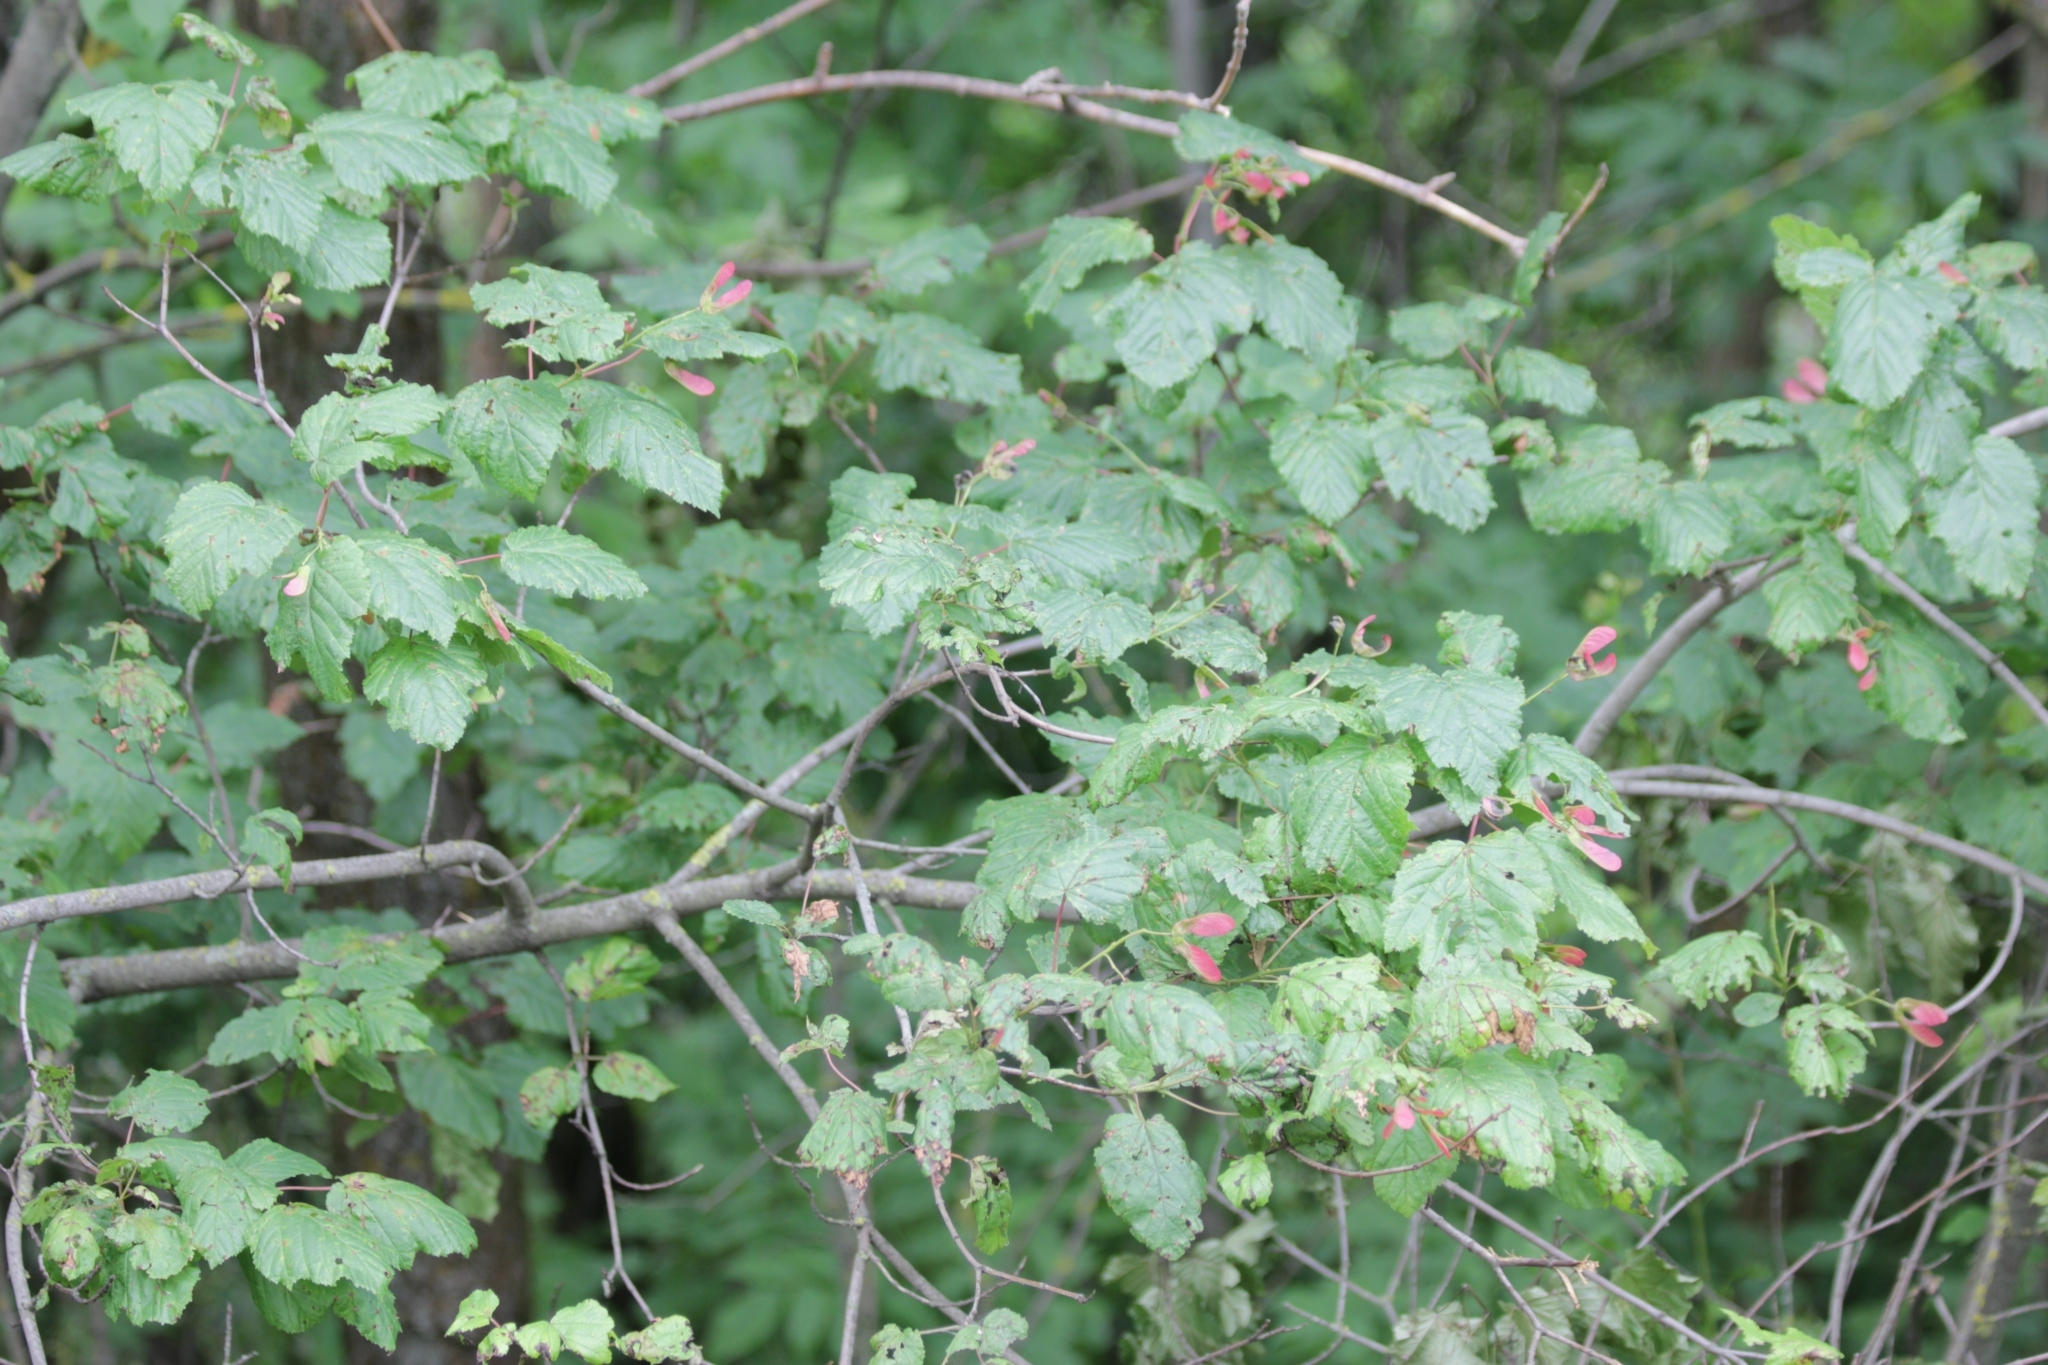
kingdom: Plantae
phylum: Tracheophyta
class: Magnoliopsida
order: Sapindales
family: Sapindaceae
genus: Acer
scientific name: Acer tataricum
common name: Tartar maple
